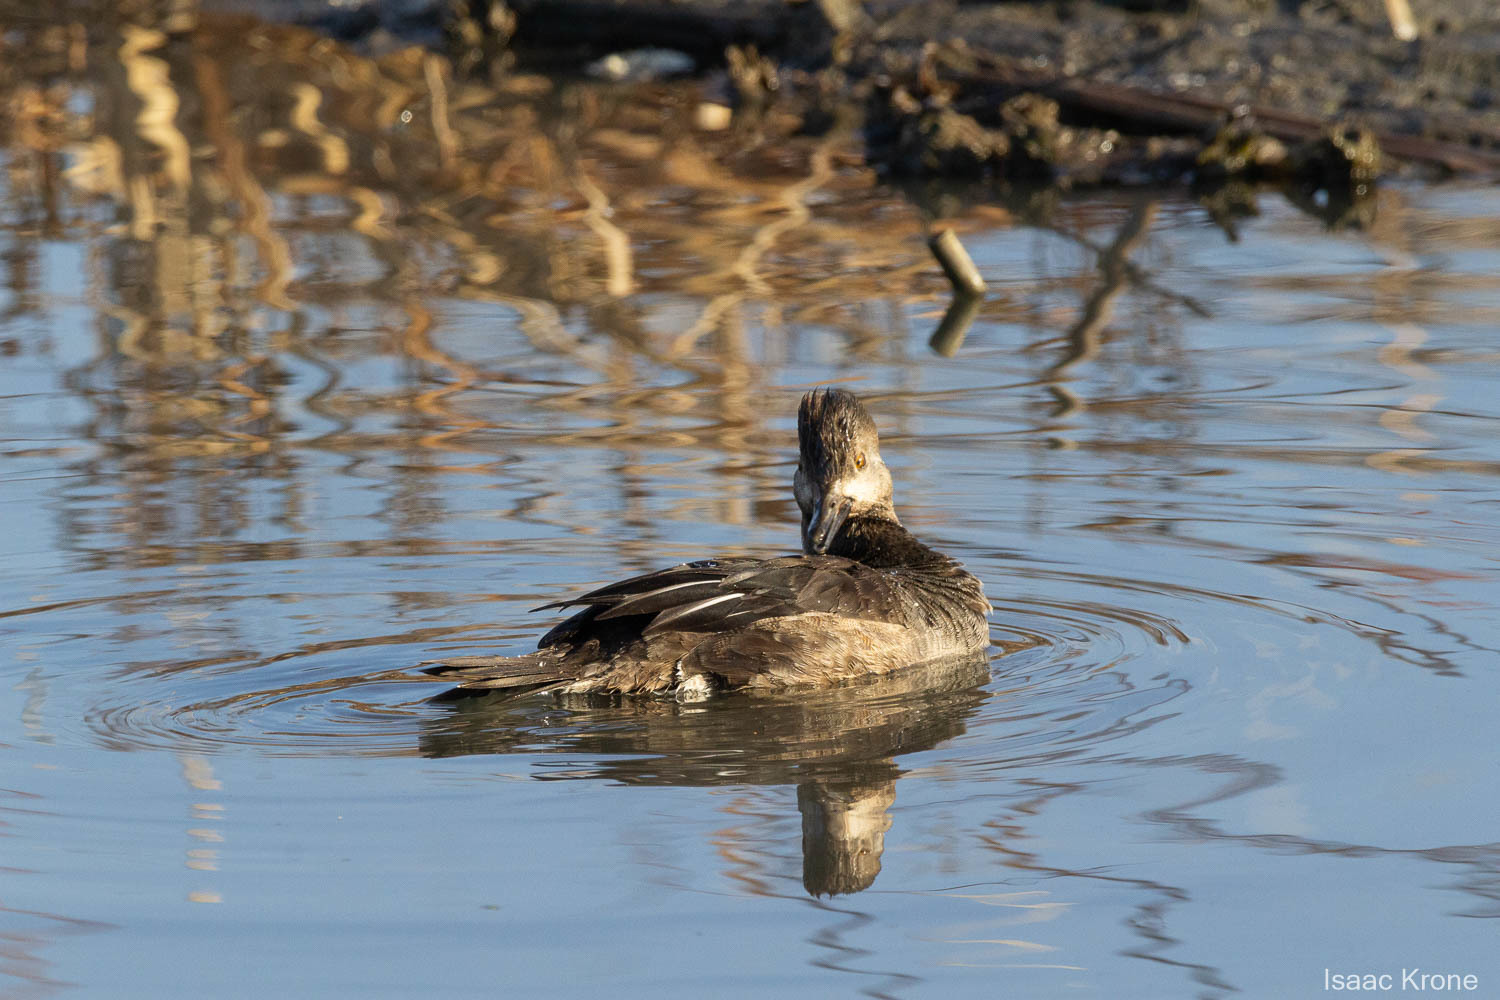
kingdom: Animalia
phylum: Chordata
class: Aves
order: Anseriformes
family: Anatidae
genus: Lophodytes
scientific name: Lophodytes cucullatus
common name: Hooded merganser
